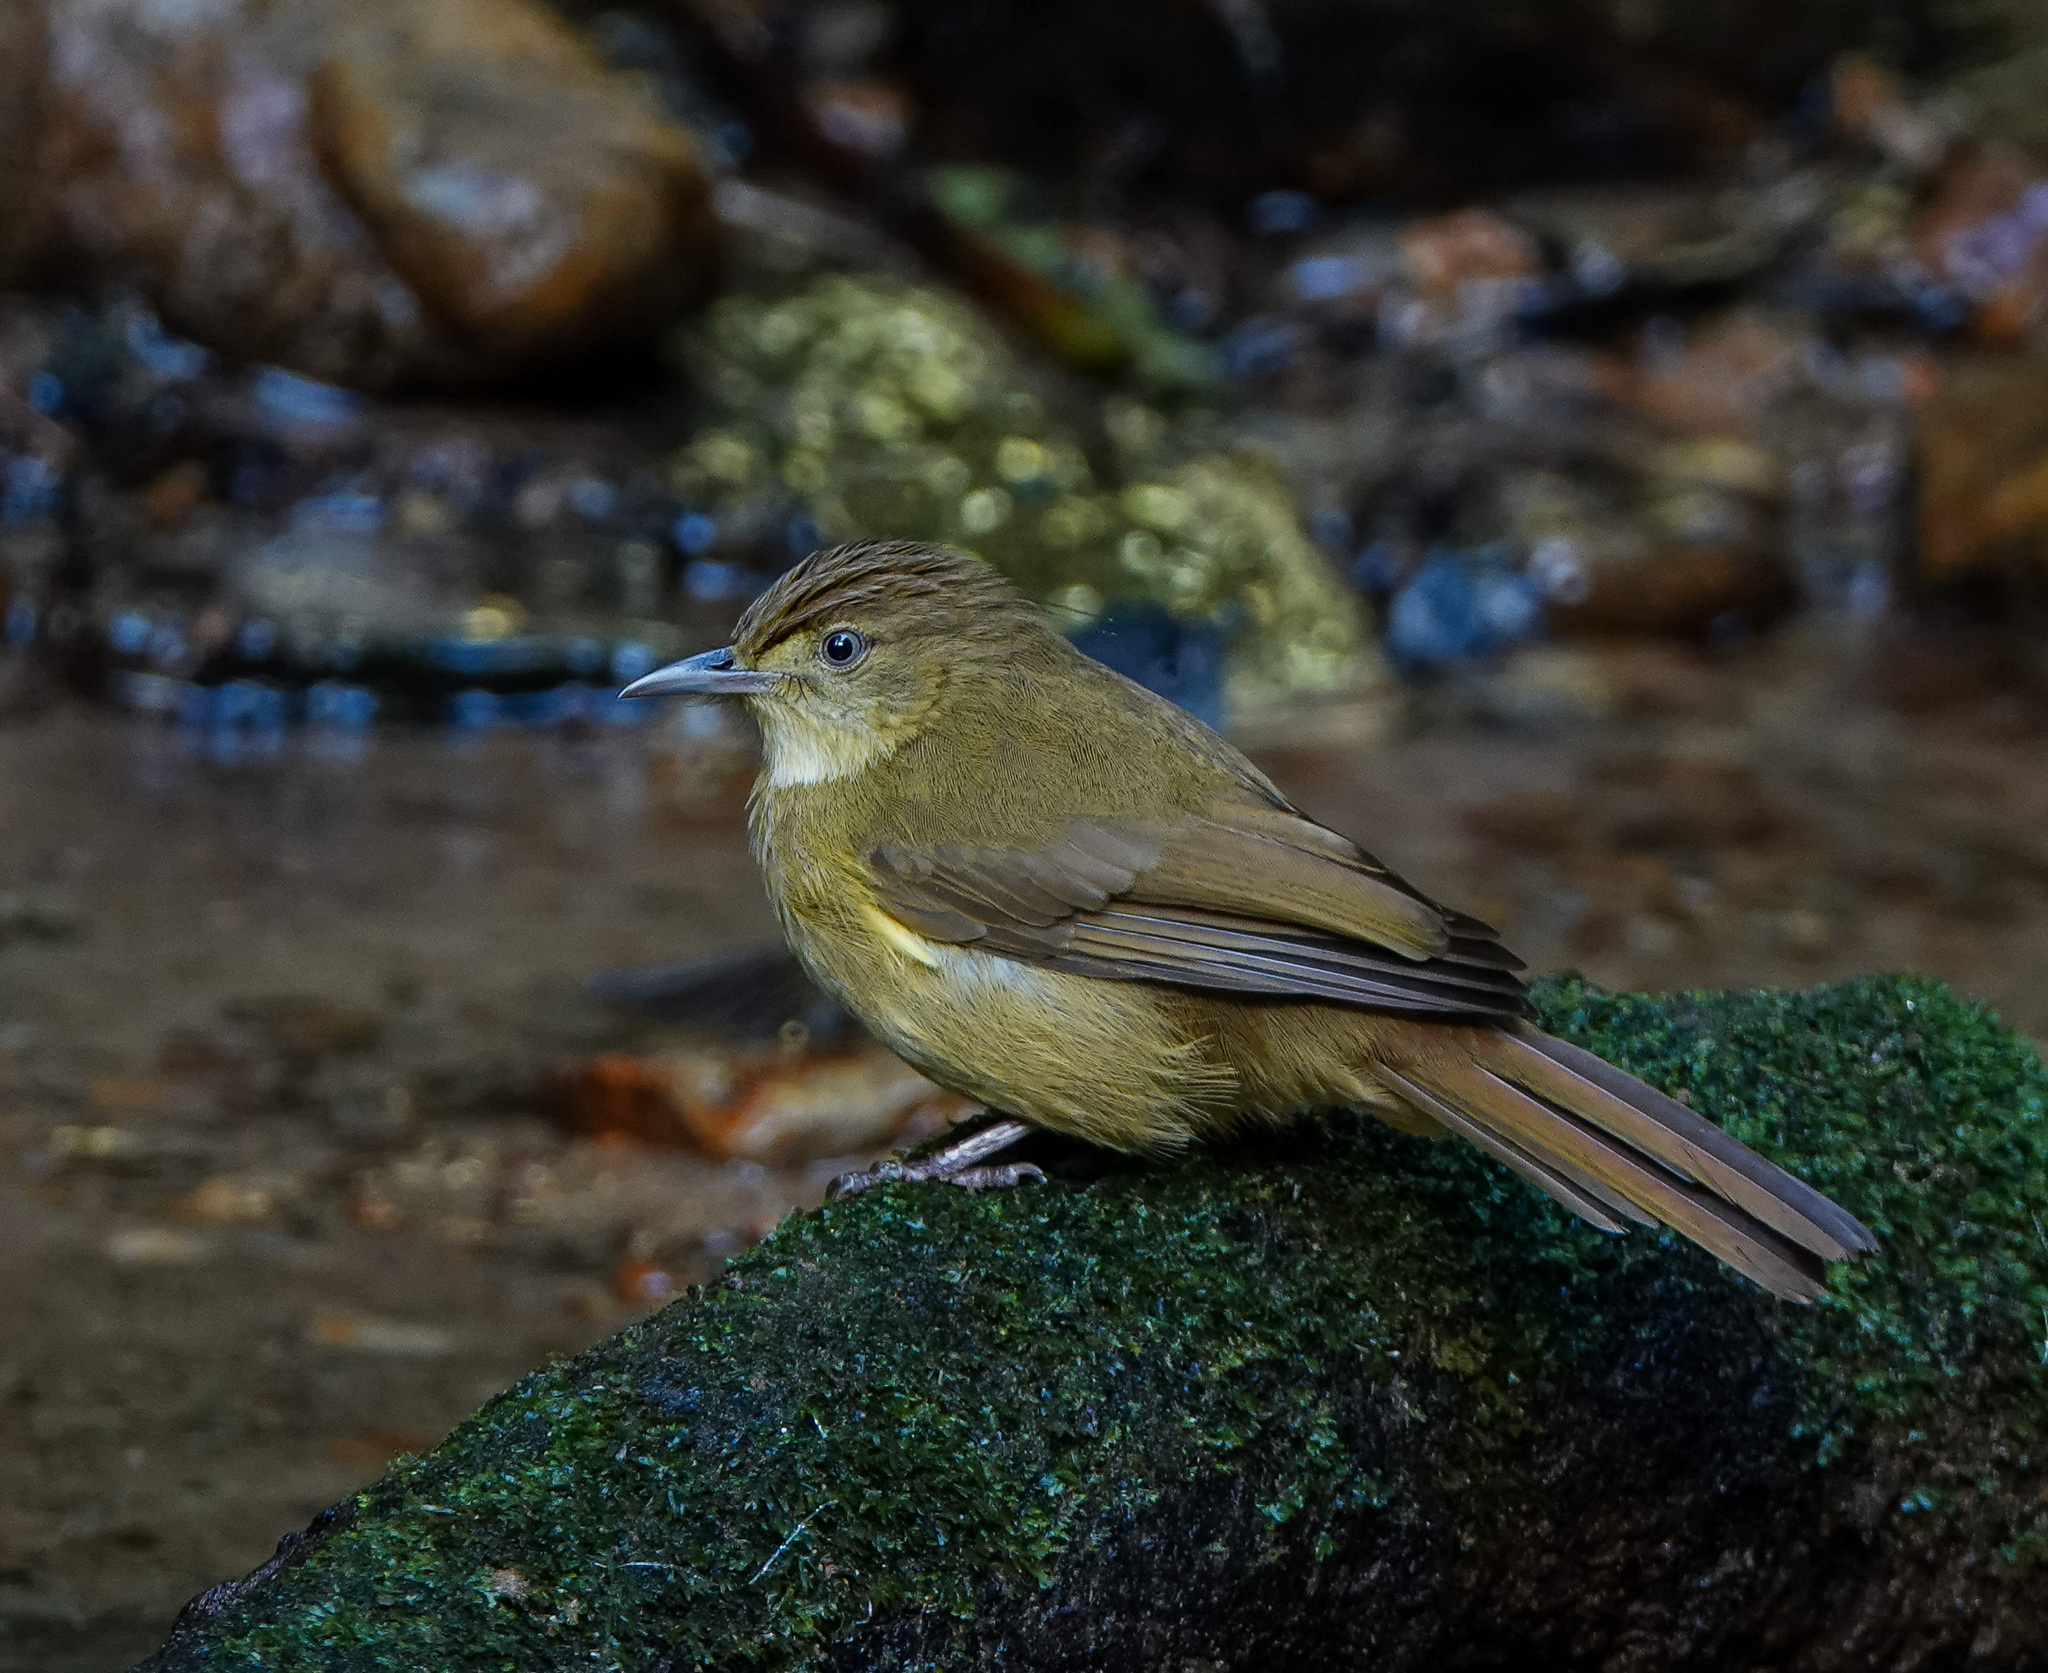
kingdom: Animalia
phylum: Chordata
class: Aves
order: Passeriformes
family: Pycnonotidae
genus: Iole
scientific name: Iole virescens
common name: Olive bulbul
